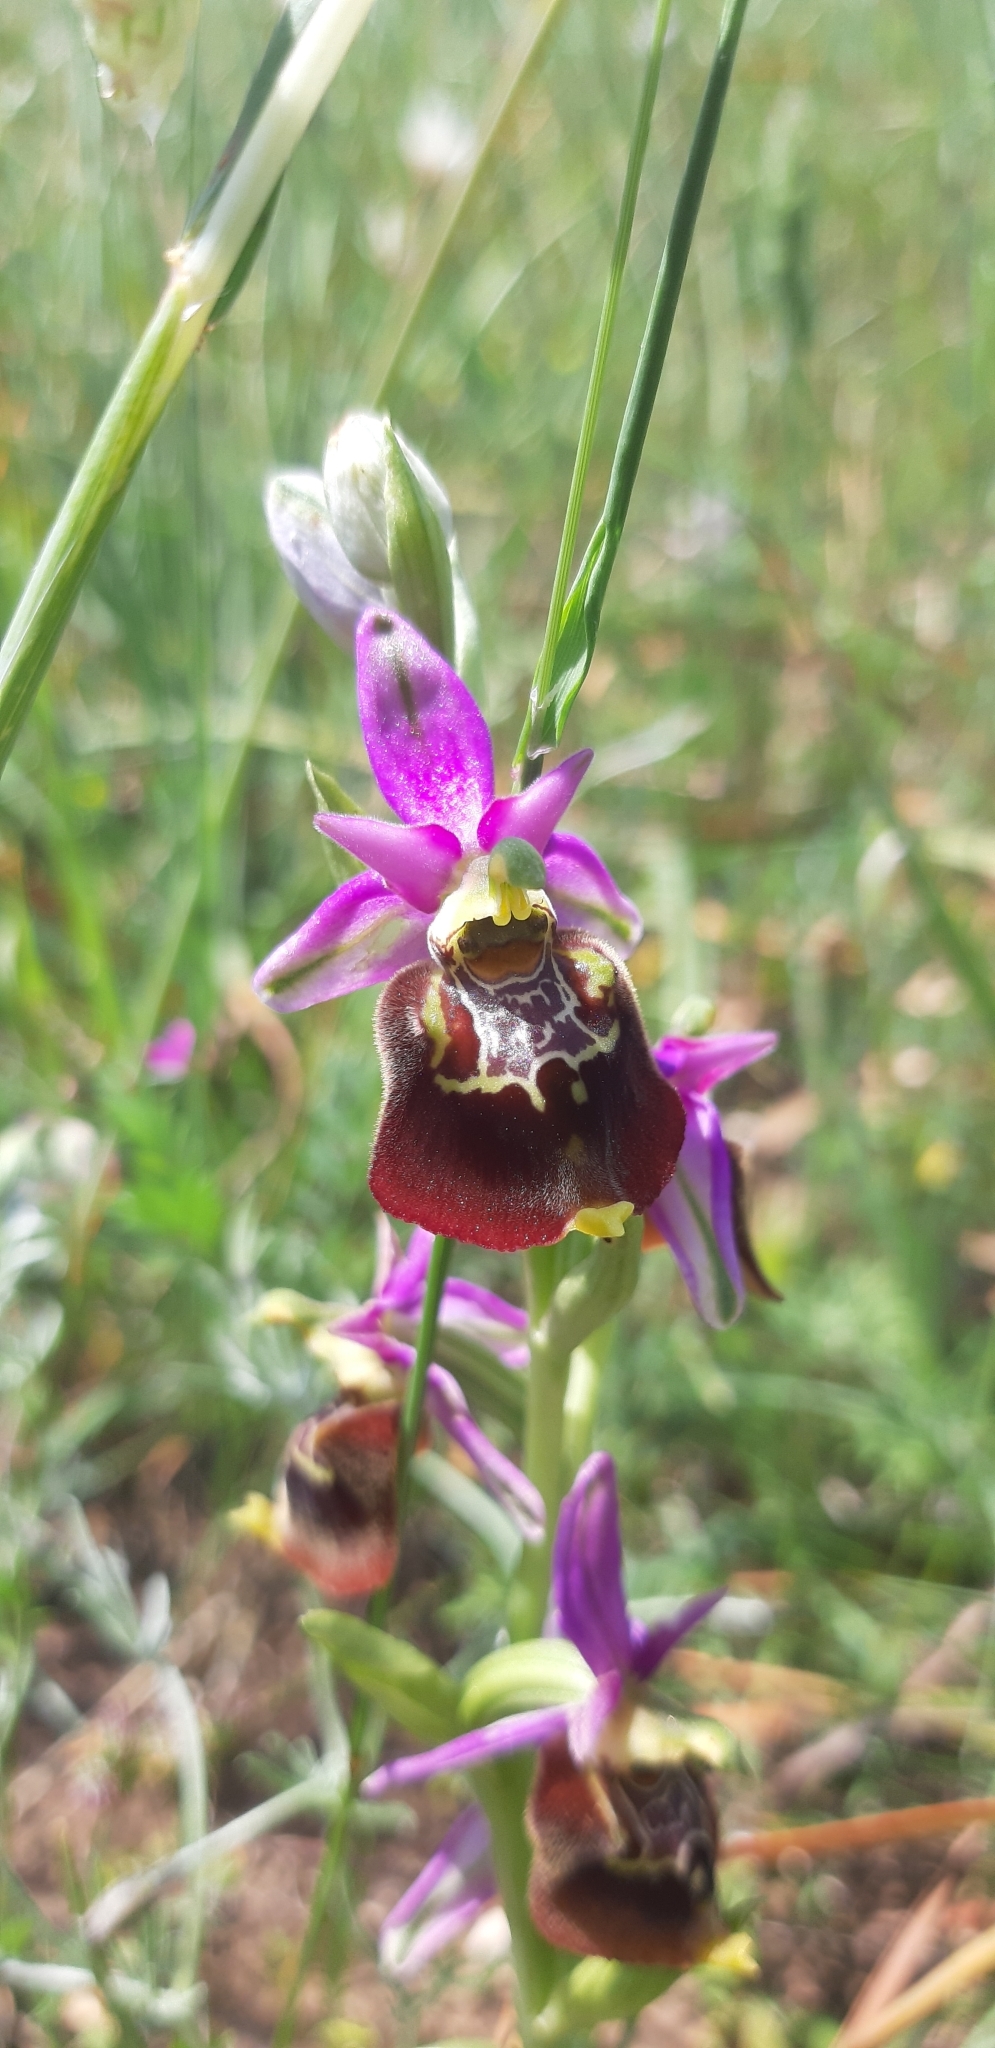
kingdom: Plantae
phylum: Tracheophyta
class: Liliopsida
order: Asparagales
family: Orchidaceae
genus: Ophrys
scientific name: Ophrys holosericea
